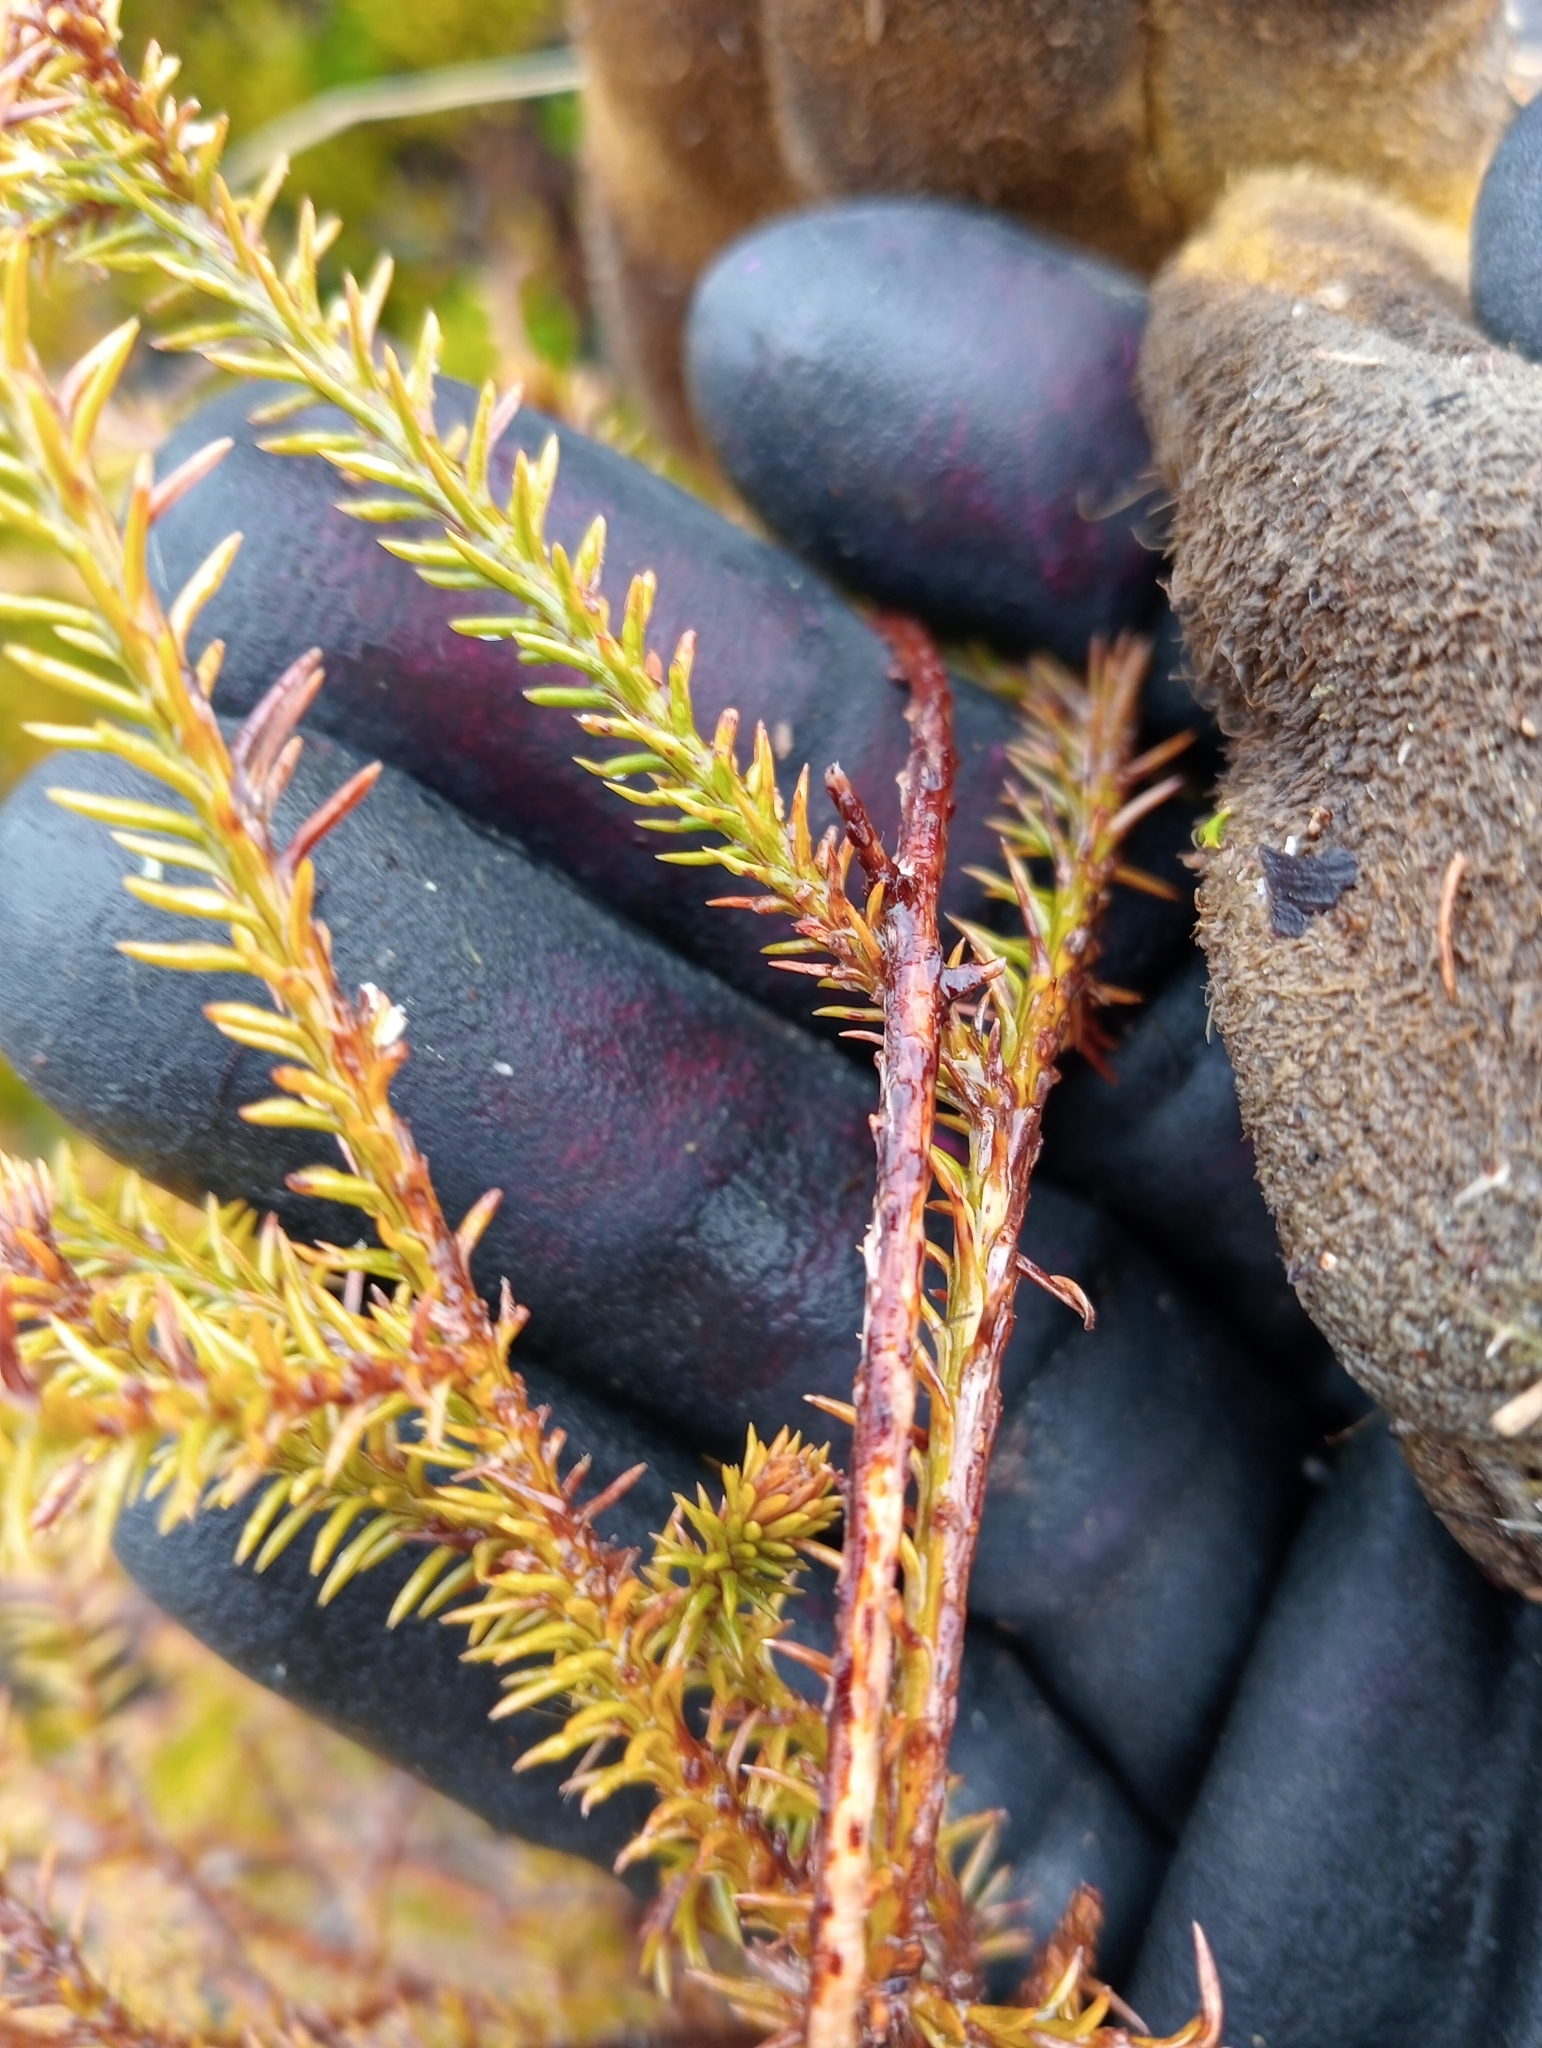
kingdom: Plantae
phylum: Tracheophyta
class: Pinopsida
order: Pinales
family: Podocarpaceae
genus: Lepidothamnus
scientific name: Lepidothamnus intermedius
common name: Yellow silver pine
